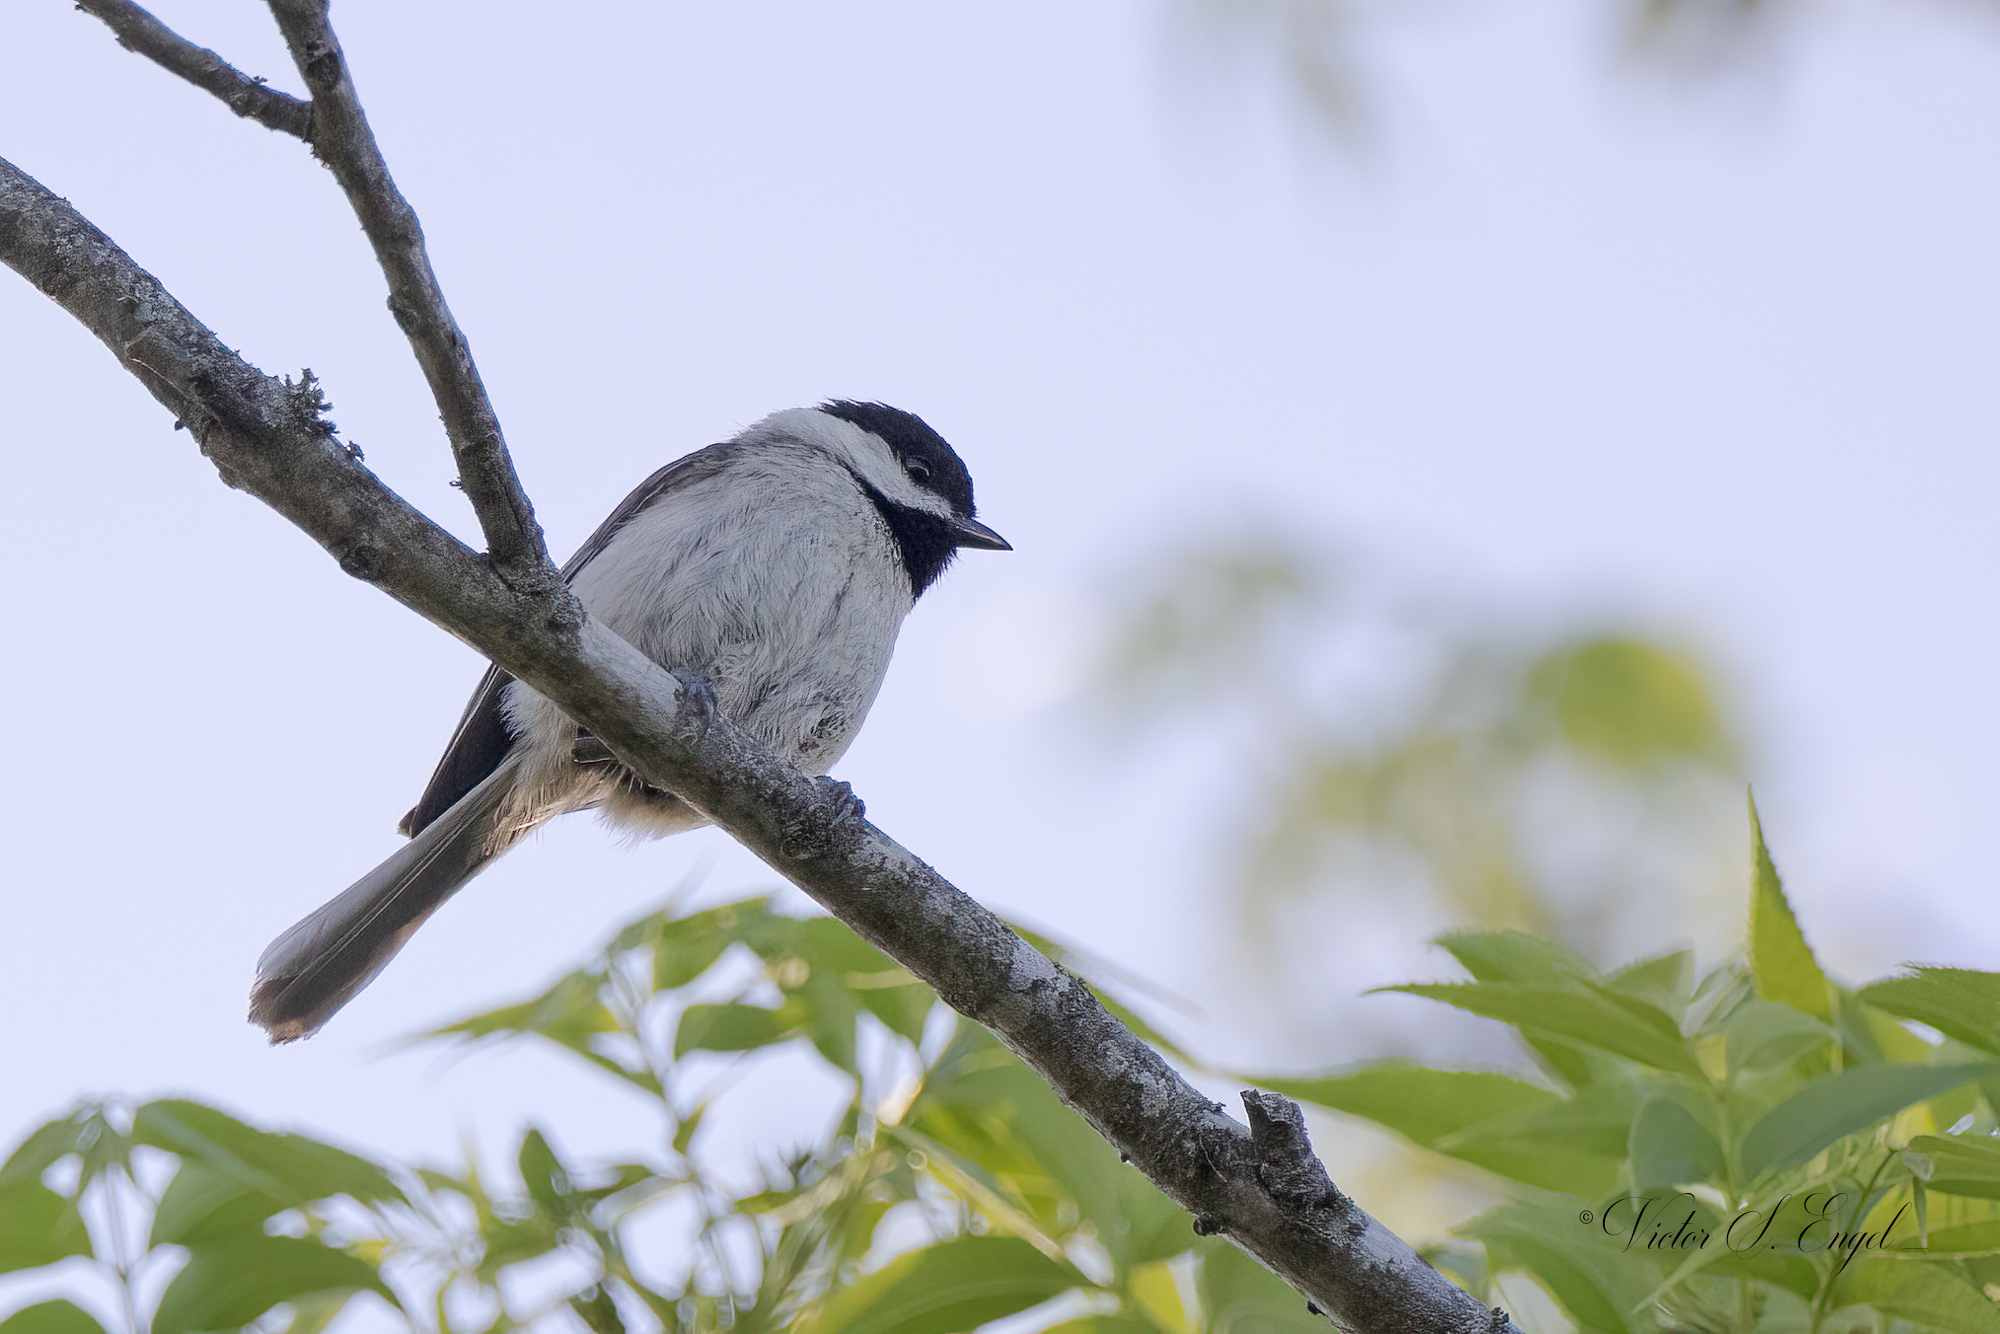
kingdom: Animalia
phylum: Chordata
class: Aves
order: Passeriformes
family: Paridae
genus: Poecile
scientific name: Poecile carolinensis
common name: Carolina chickadee
